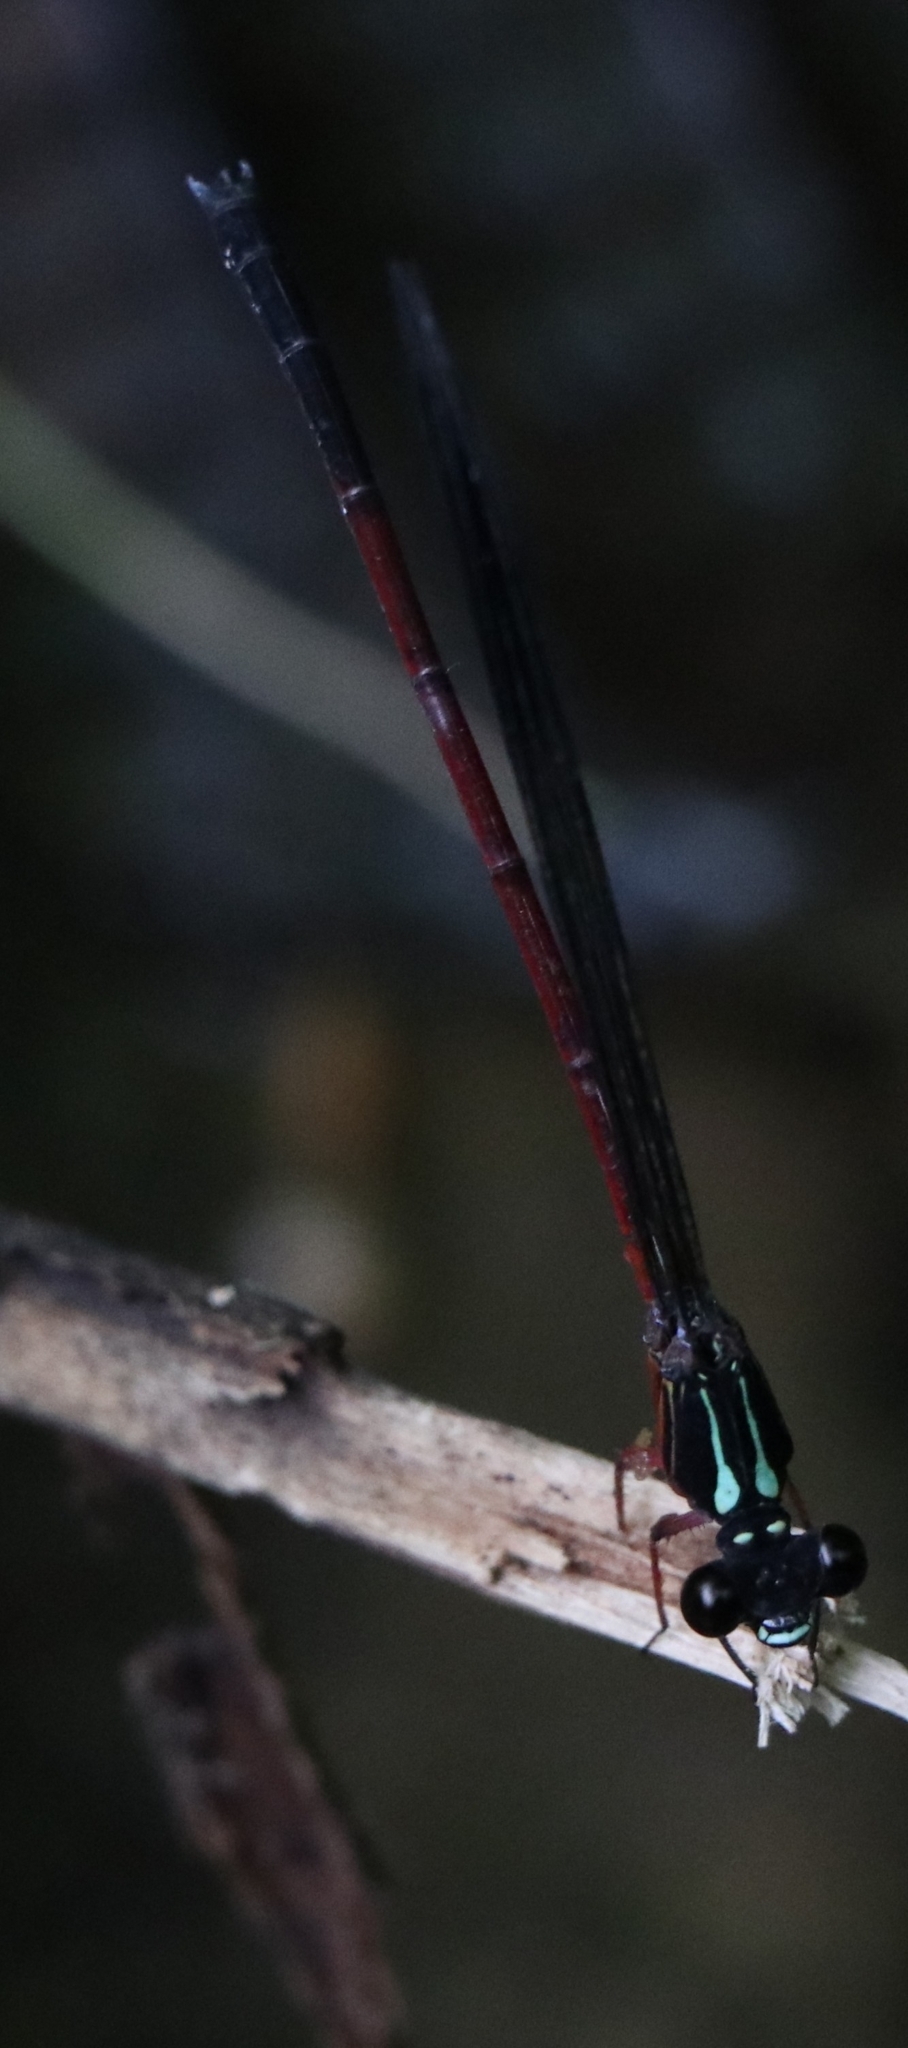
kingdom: Animalia
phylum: Arthropoda
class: Insecta
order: Odonata
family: Euphaeidae
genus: Euphaea
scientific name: Euphaea fraseri
